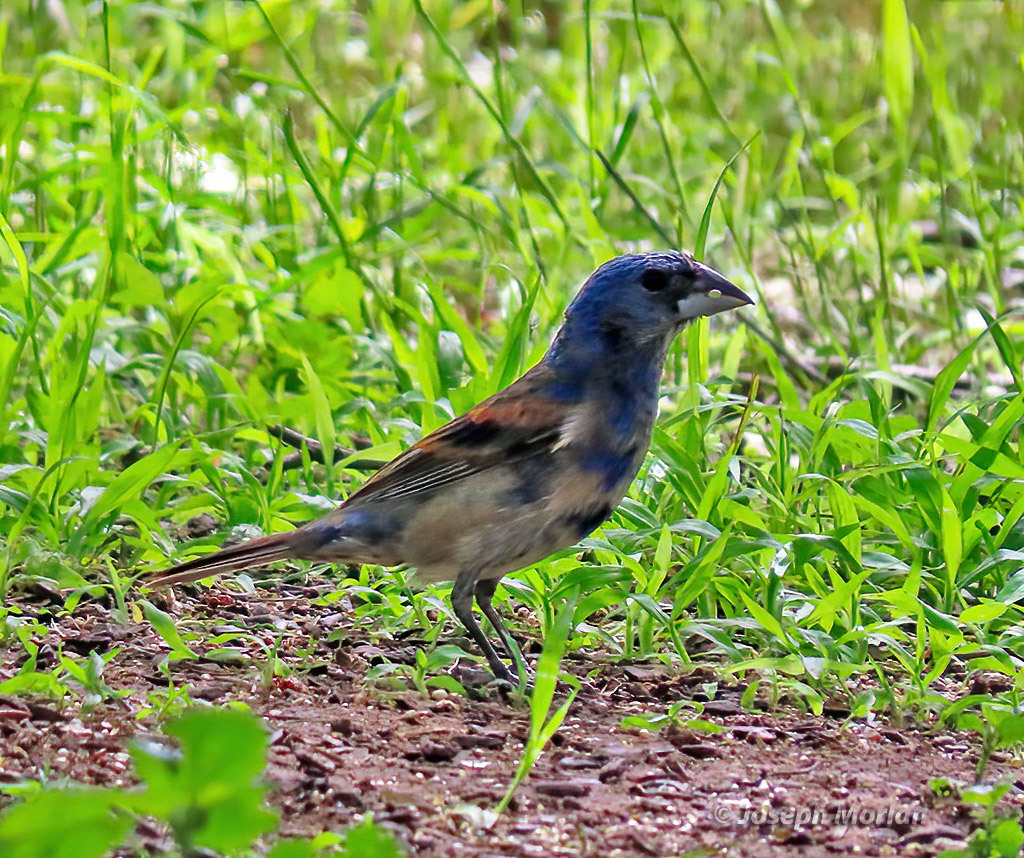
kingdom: Animalia
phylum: Chordata
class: Aves
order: Passeriformes
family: Cardinalidae
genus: Passerina
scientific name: Passerina caerulea
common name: Blue grosbeak
